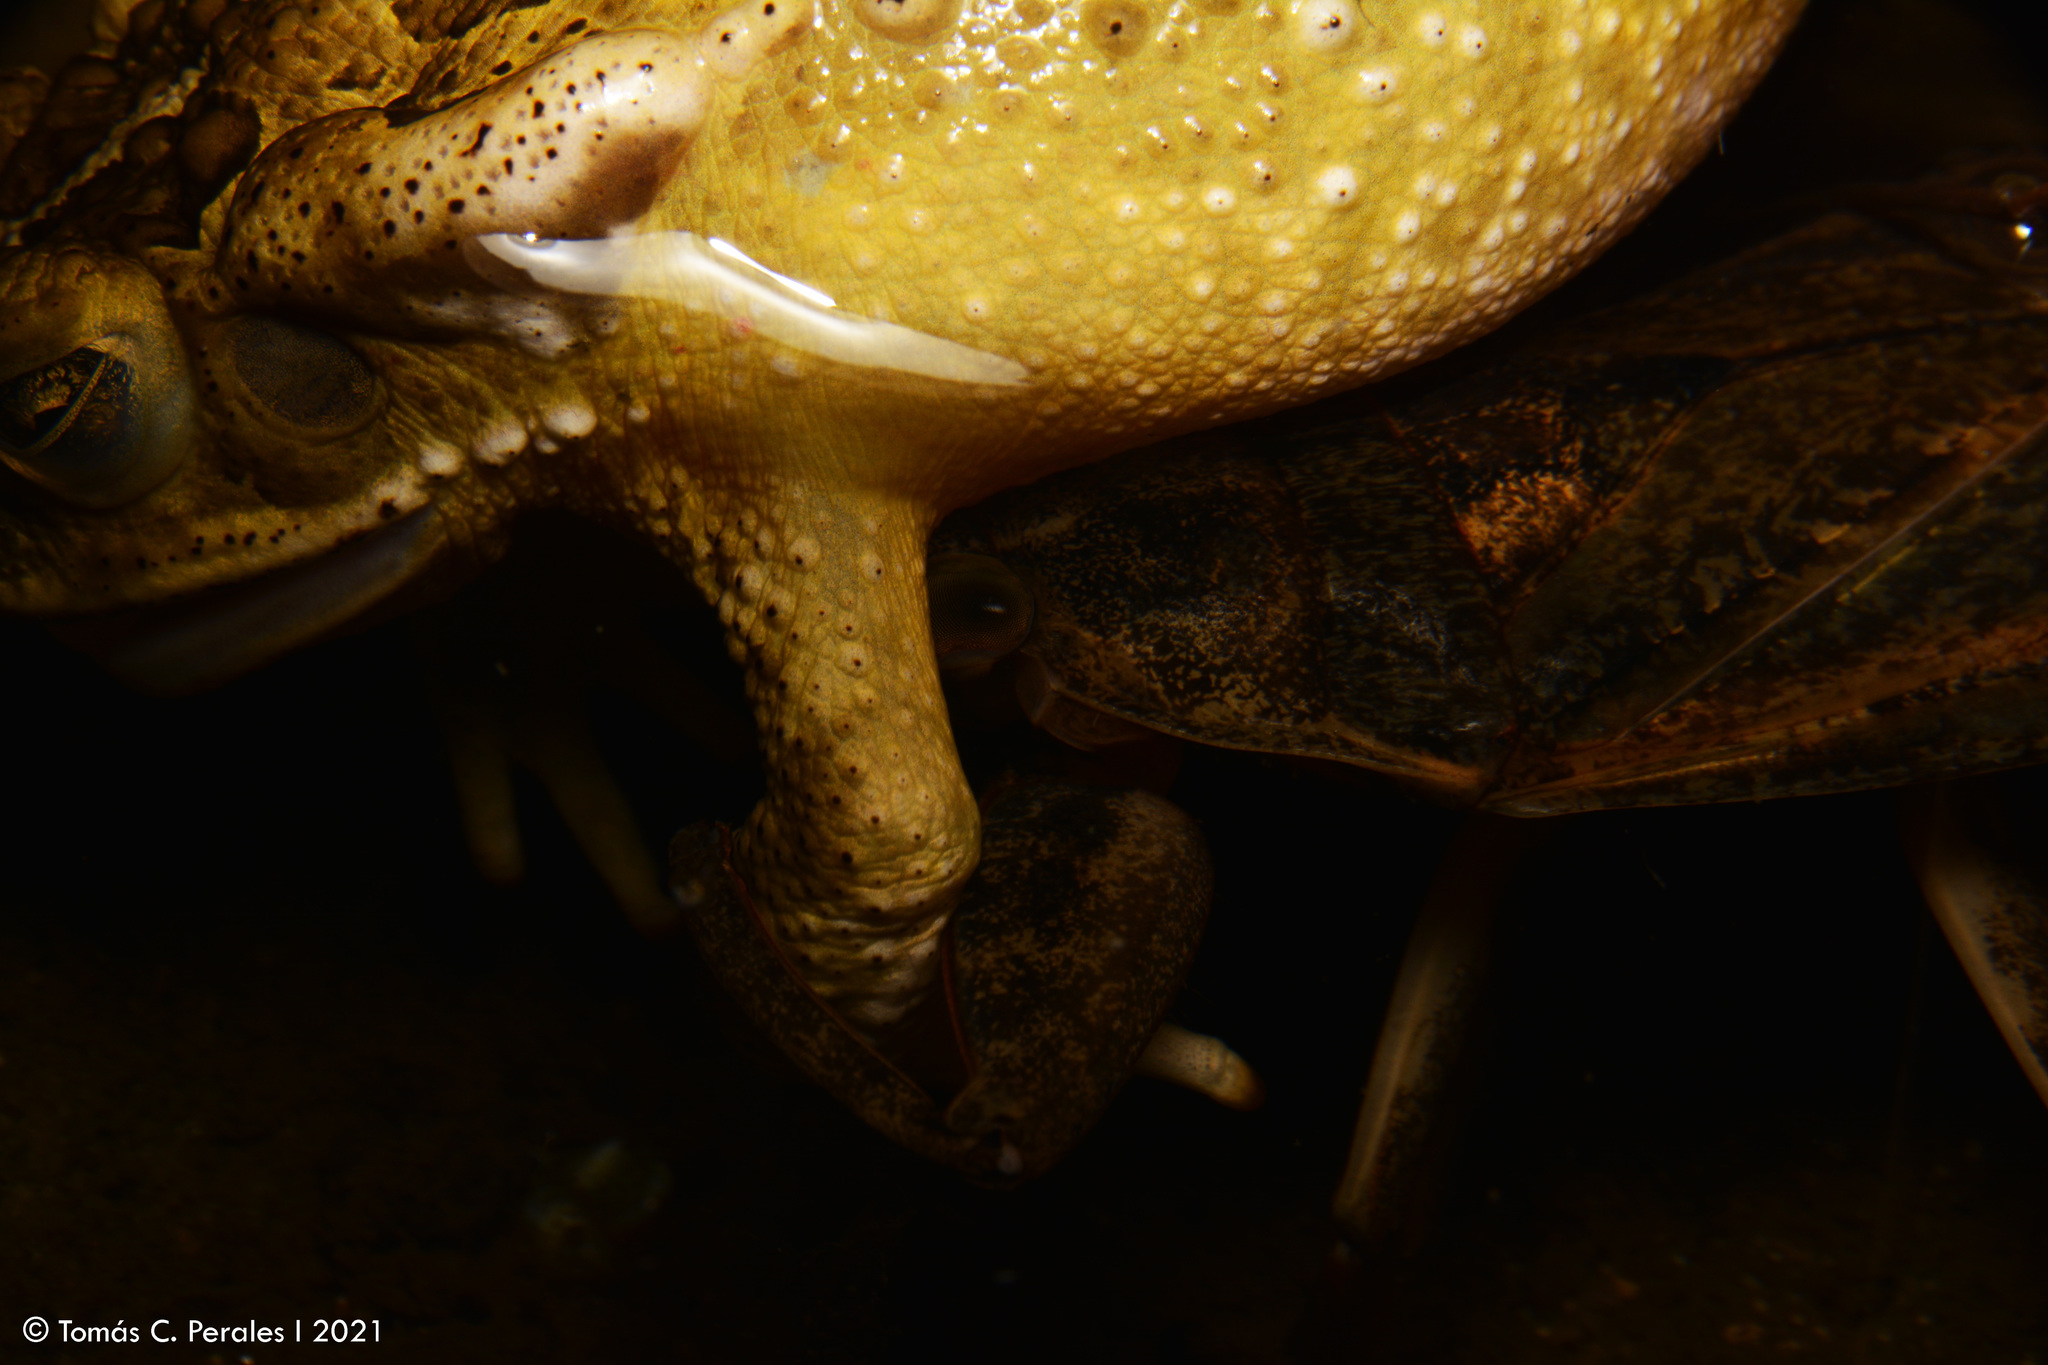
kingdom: Animalia
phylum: Chordata
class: Amphibia
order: Anura
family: Bufonidae
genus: Rhinella
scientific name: Rhinella arenarum
